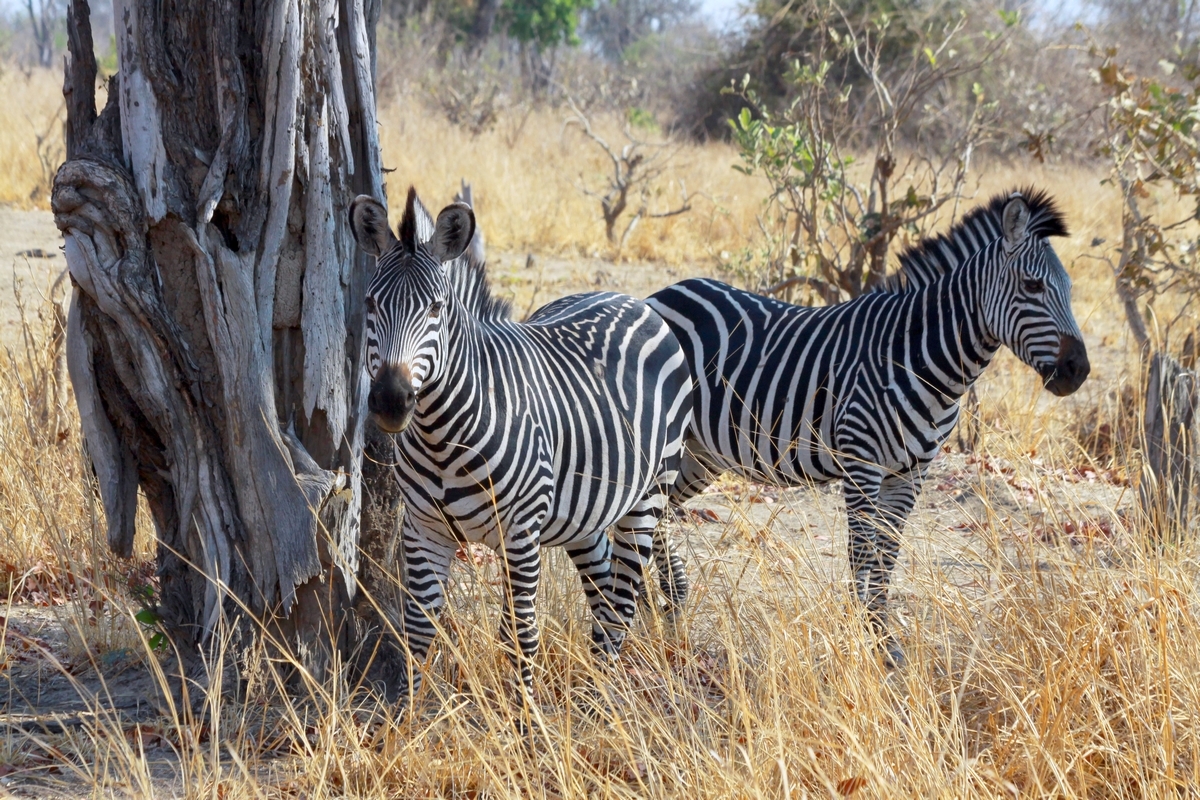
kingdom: Animalia
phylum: Chordata
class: Mammalia
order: Perissodactyla
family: Equidae
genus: Equus
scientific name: Equus quagga
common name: Plains zebra
